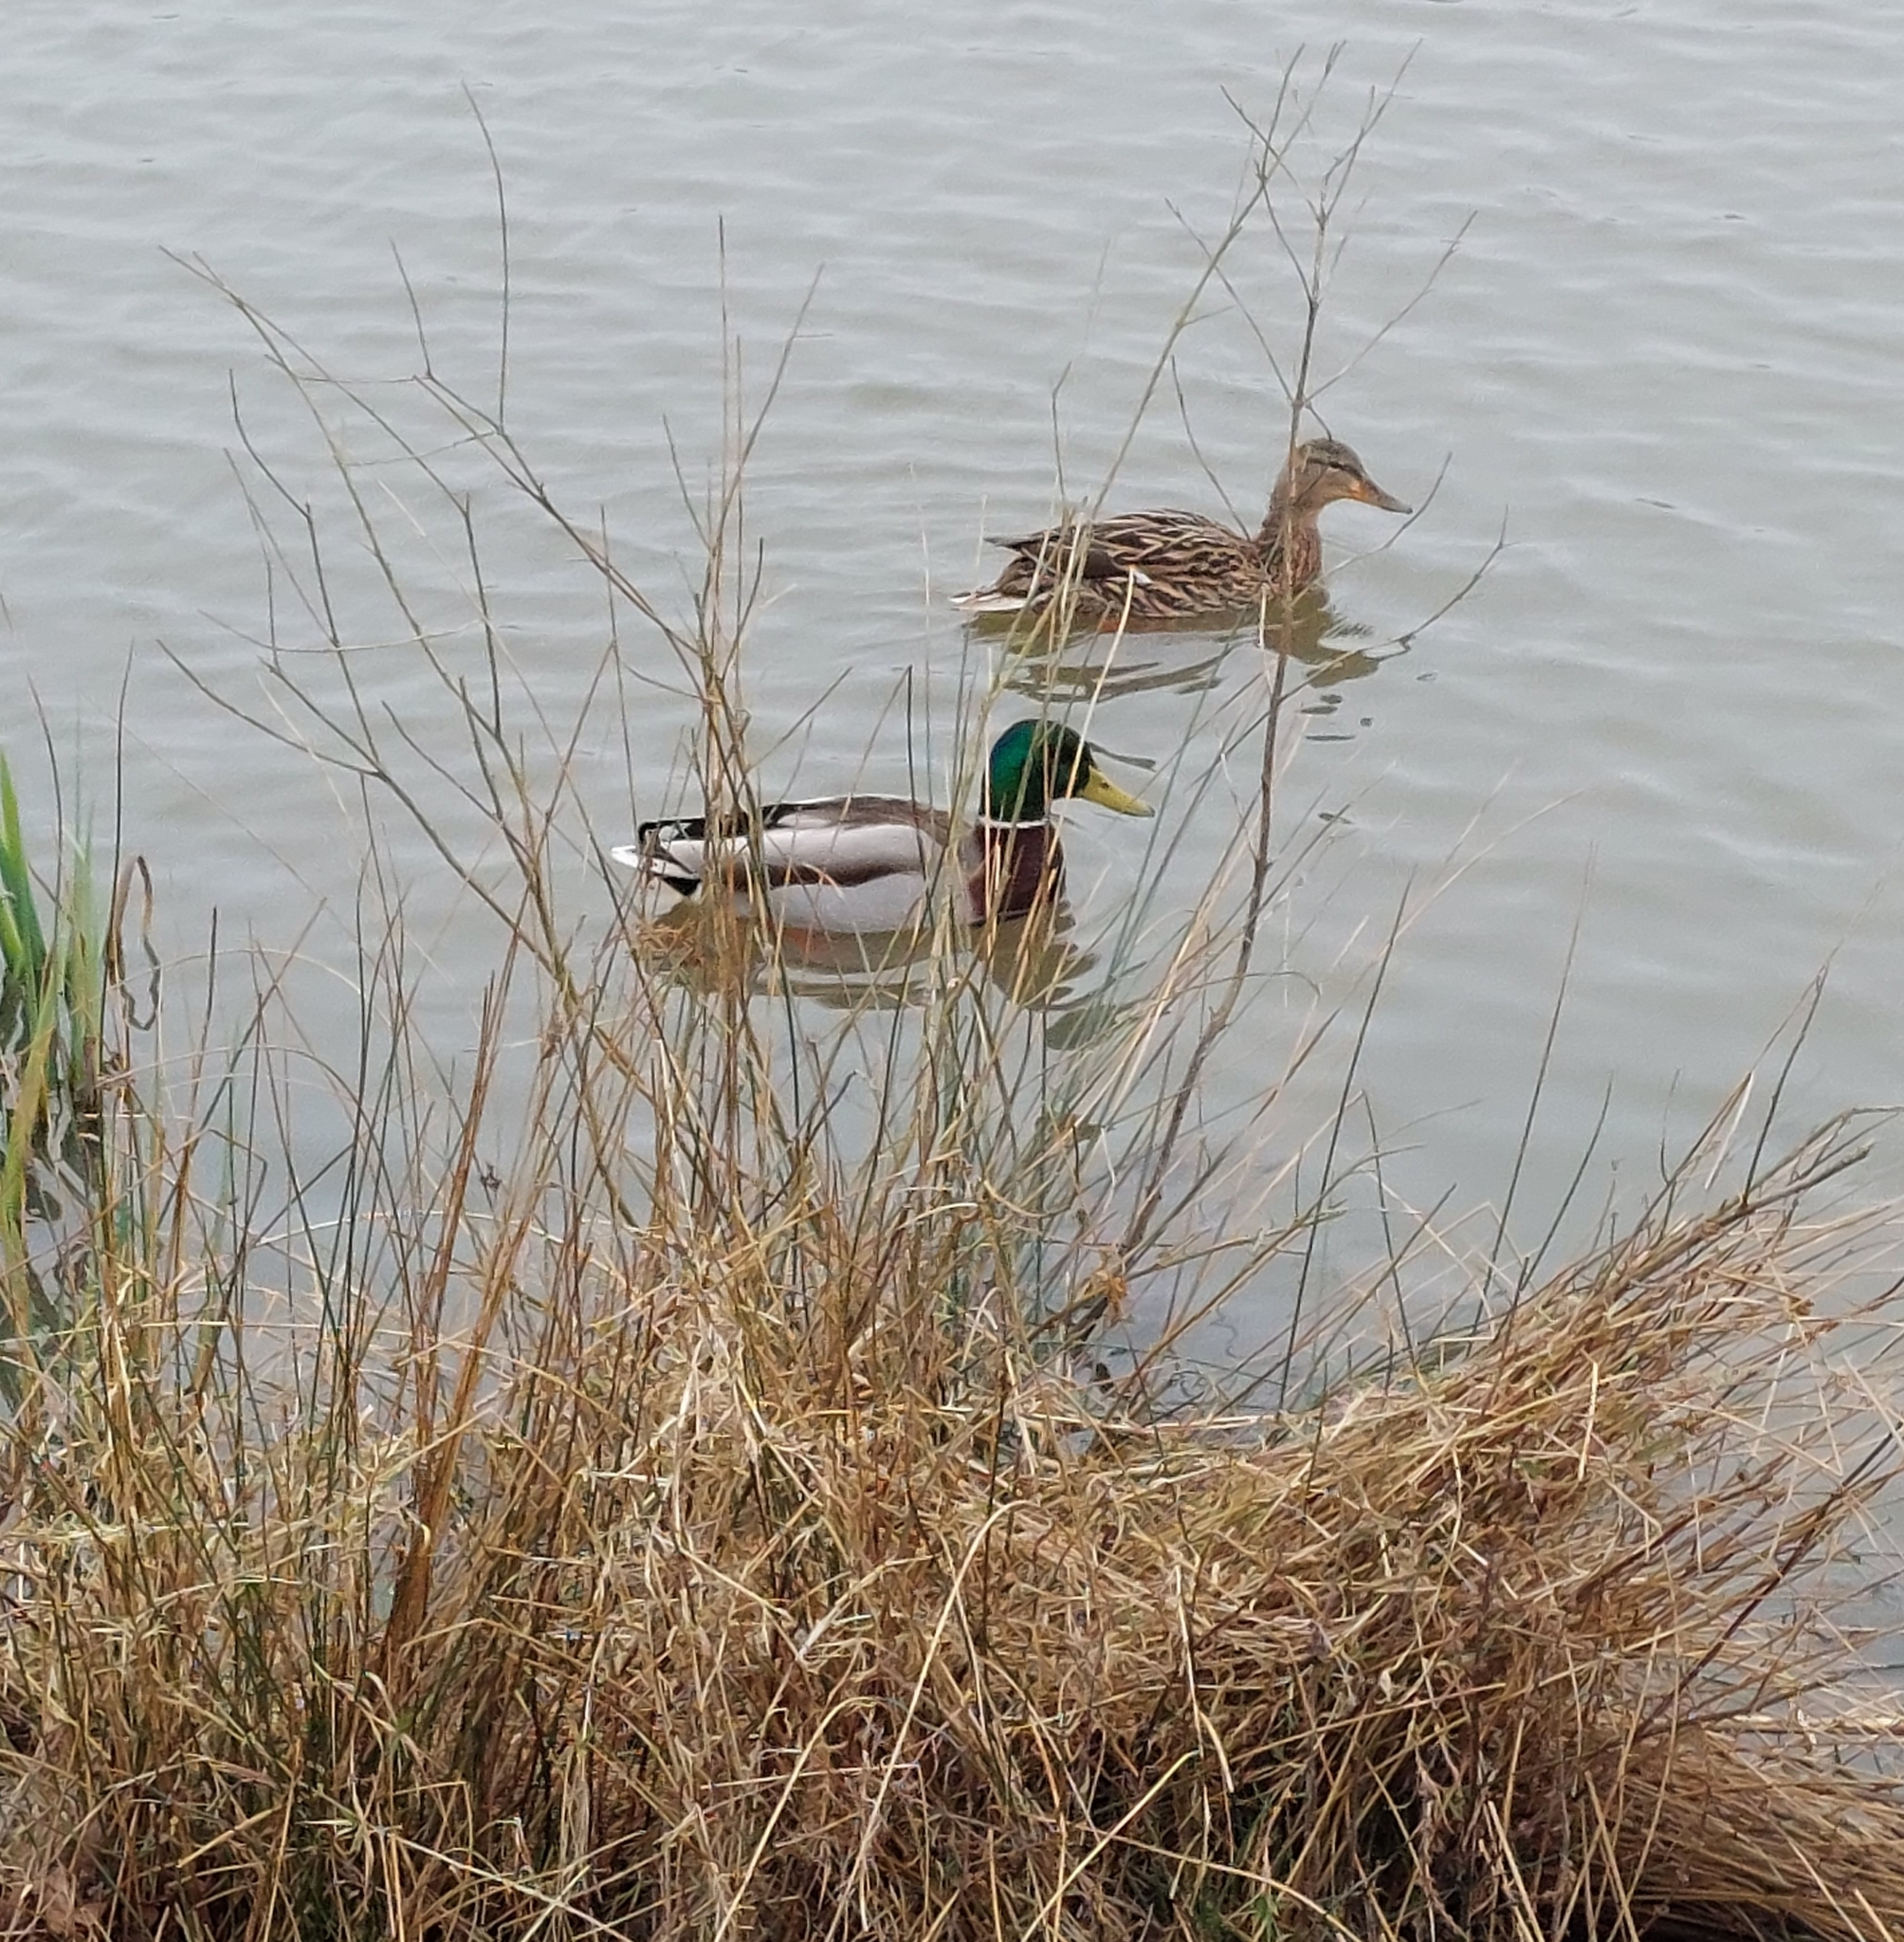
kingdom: Animalia
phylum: Chordata
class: Aves
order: Anseriformes
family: Anatidae
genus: Anas
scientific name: Anas platyrhynchos
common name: Mallard
